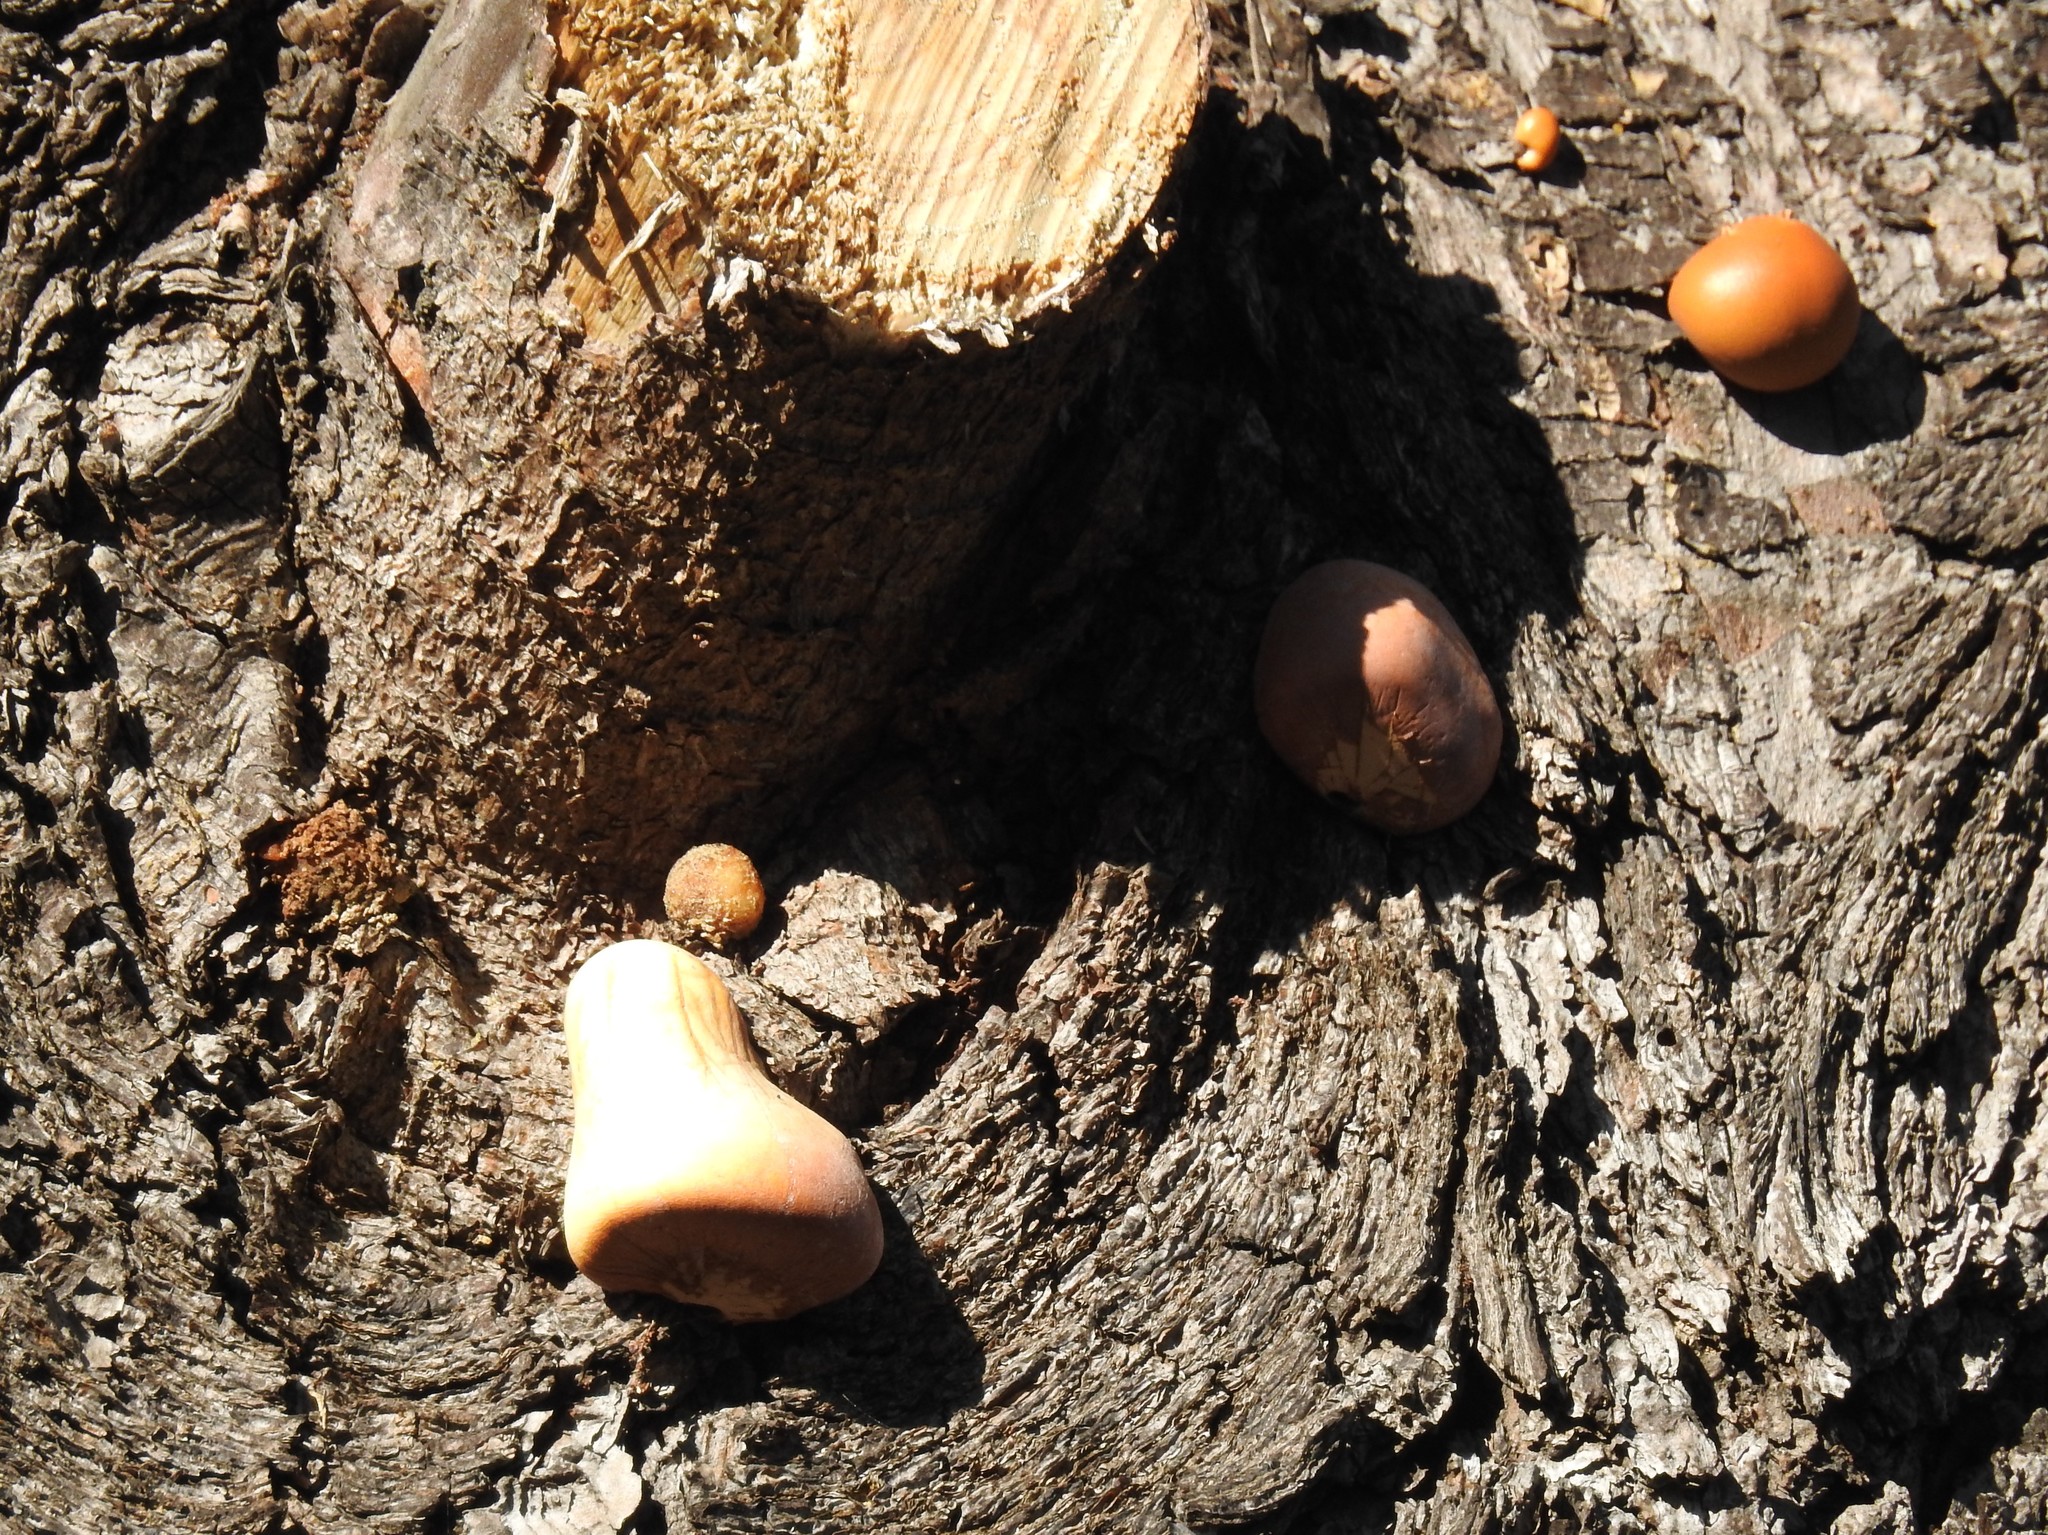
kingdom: Fungi
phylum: Basidiomycota
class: Agaricomycetes
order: Polyporales
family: Polyporaceae
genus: Cryptoporus
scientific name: Cryptoporus volvatus
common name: Veiled polypore
